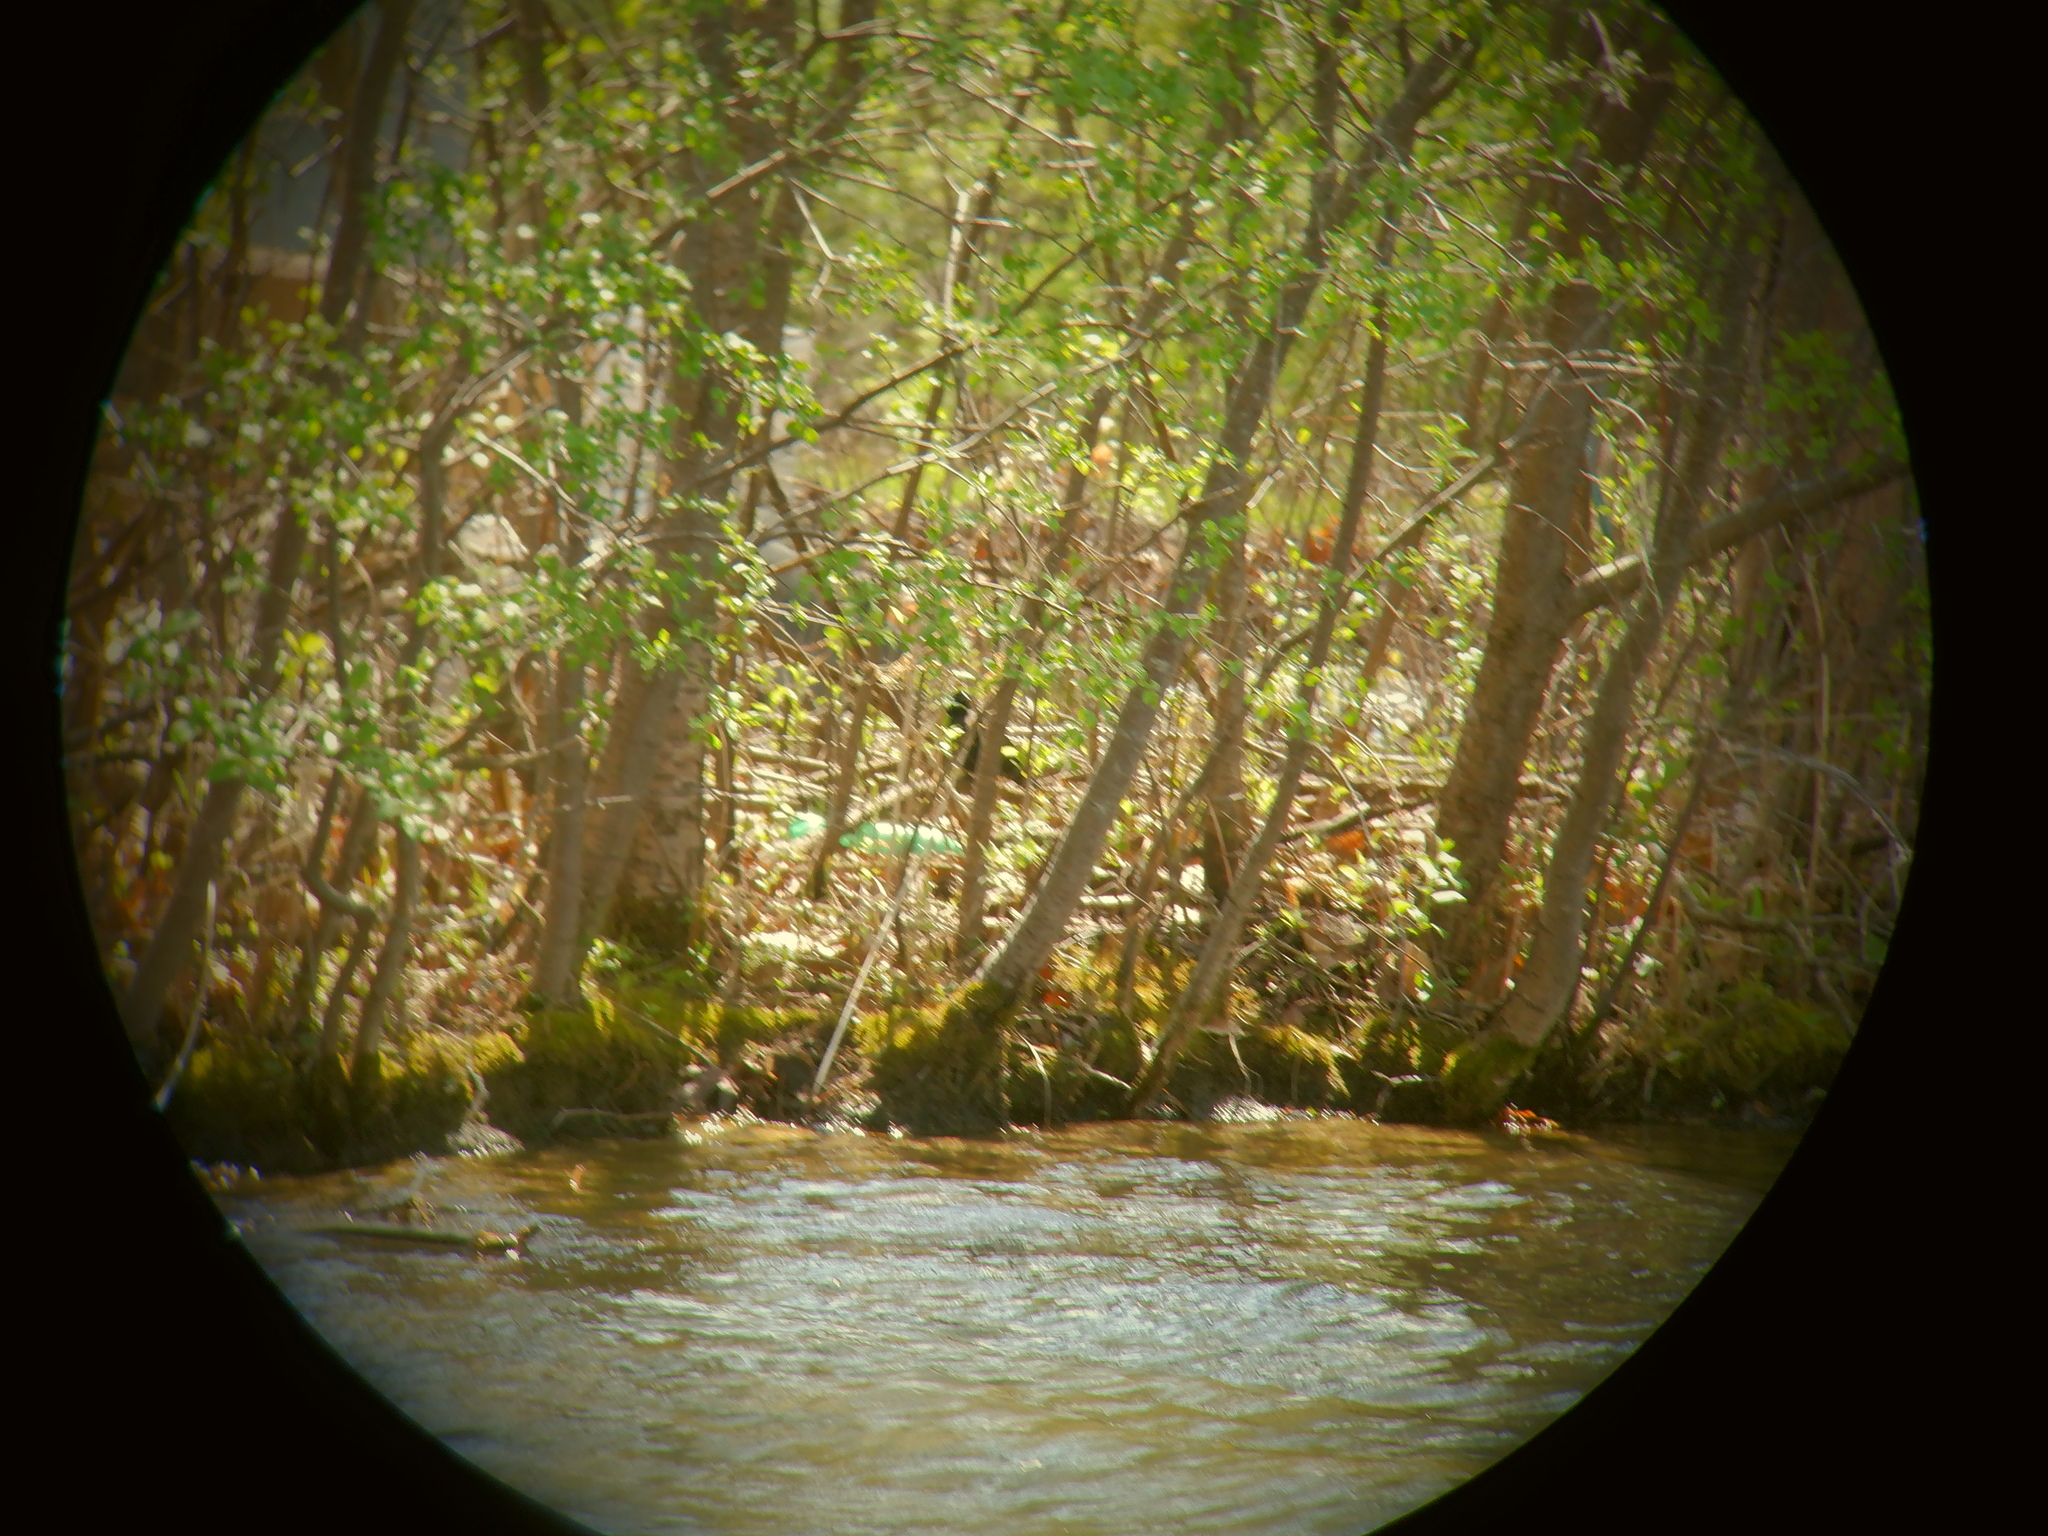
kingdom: Animalia
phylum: Chordata
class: Aves
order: Passeriformes
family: Icteridae
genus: Agelaius
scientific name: Agelaius phoeniceus
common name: Red-winged blackbird
